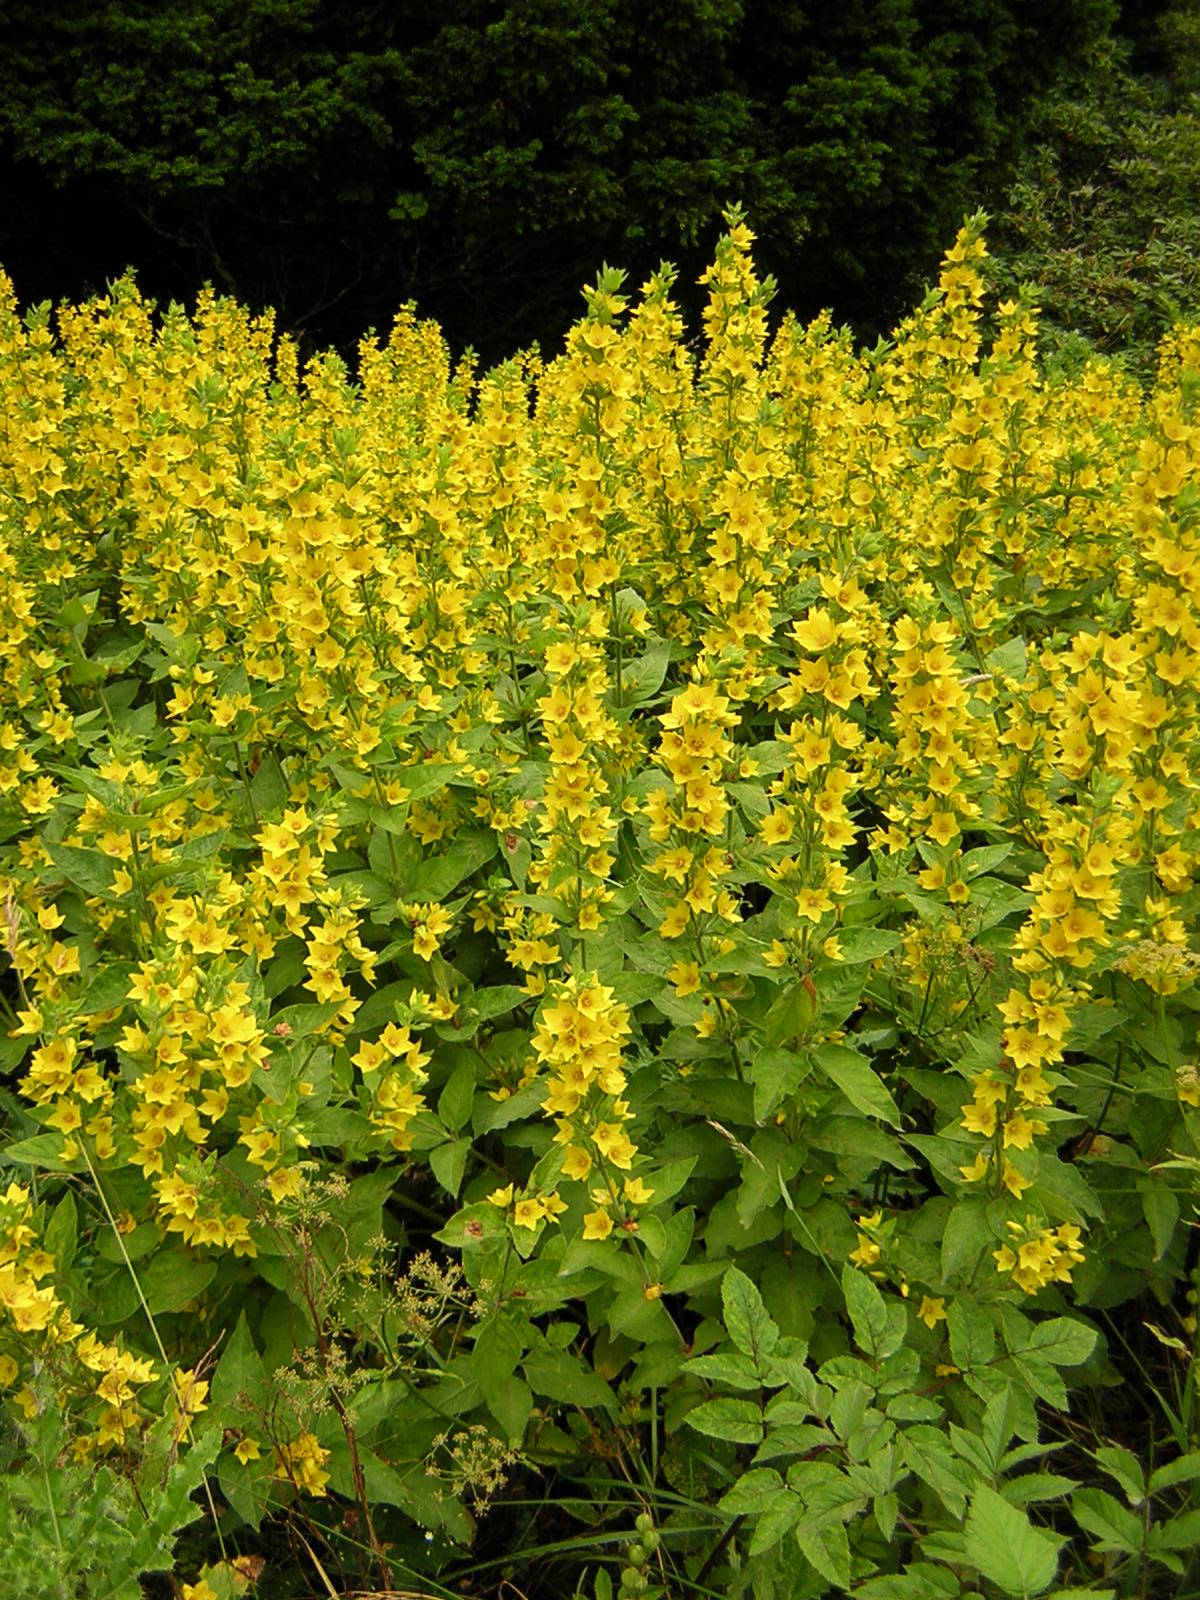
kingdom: Plantae
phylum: Tracheophyta
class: Magnoliopsida
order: Ericales
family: Primulaceae
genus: Lysimachia
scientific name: Lysimachia punctata
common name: Dotted loosestrife
